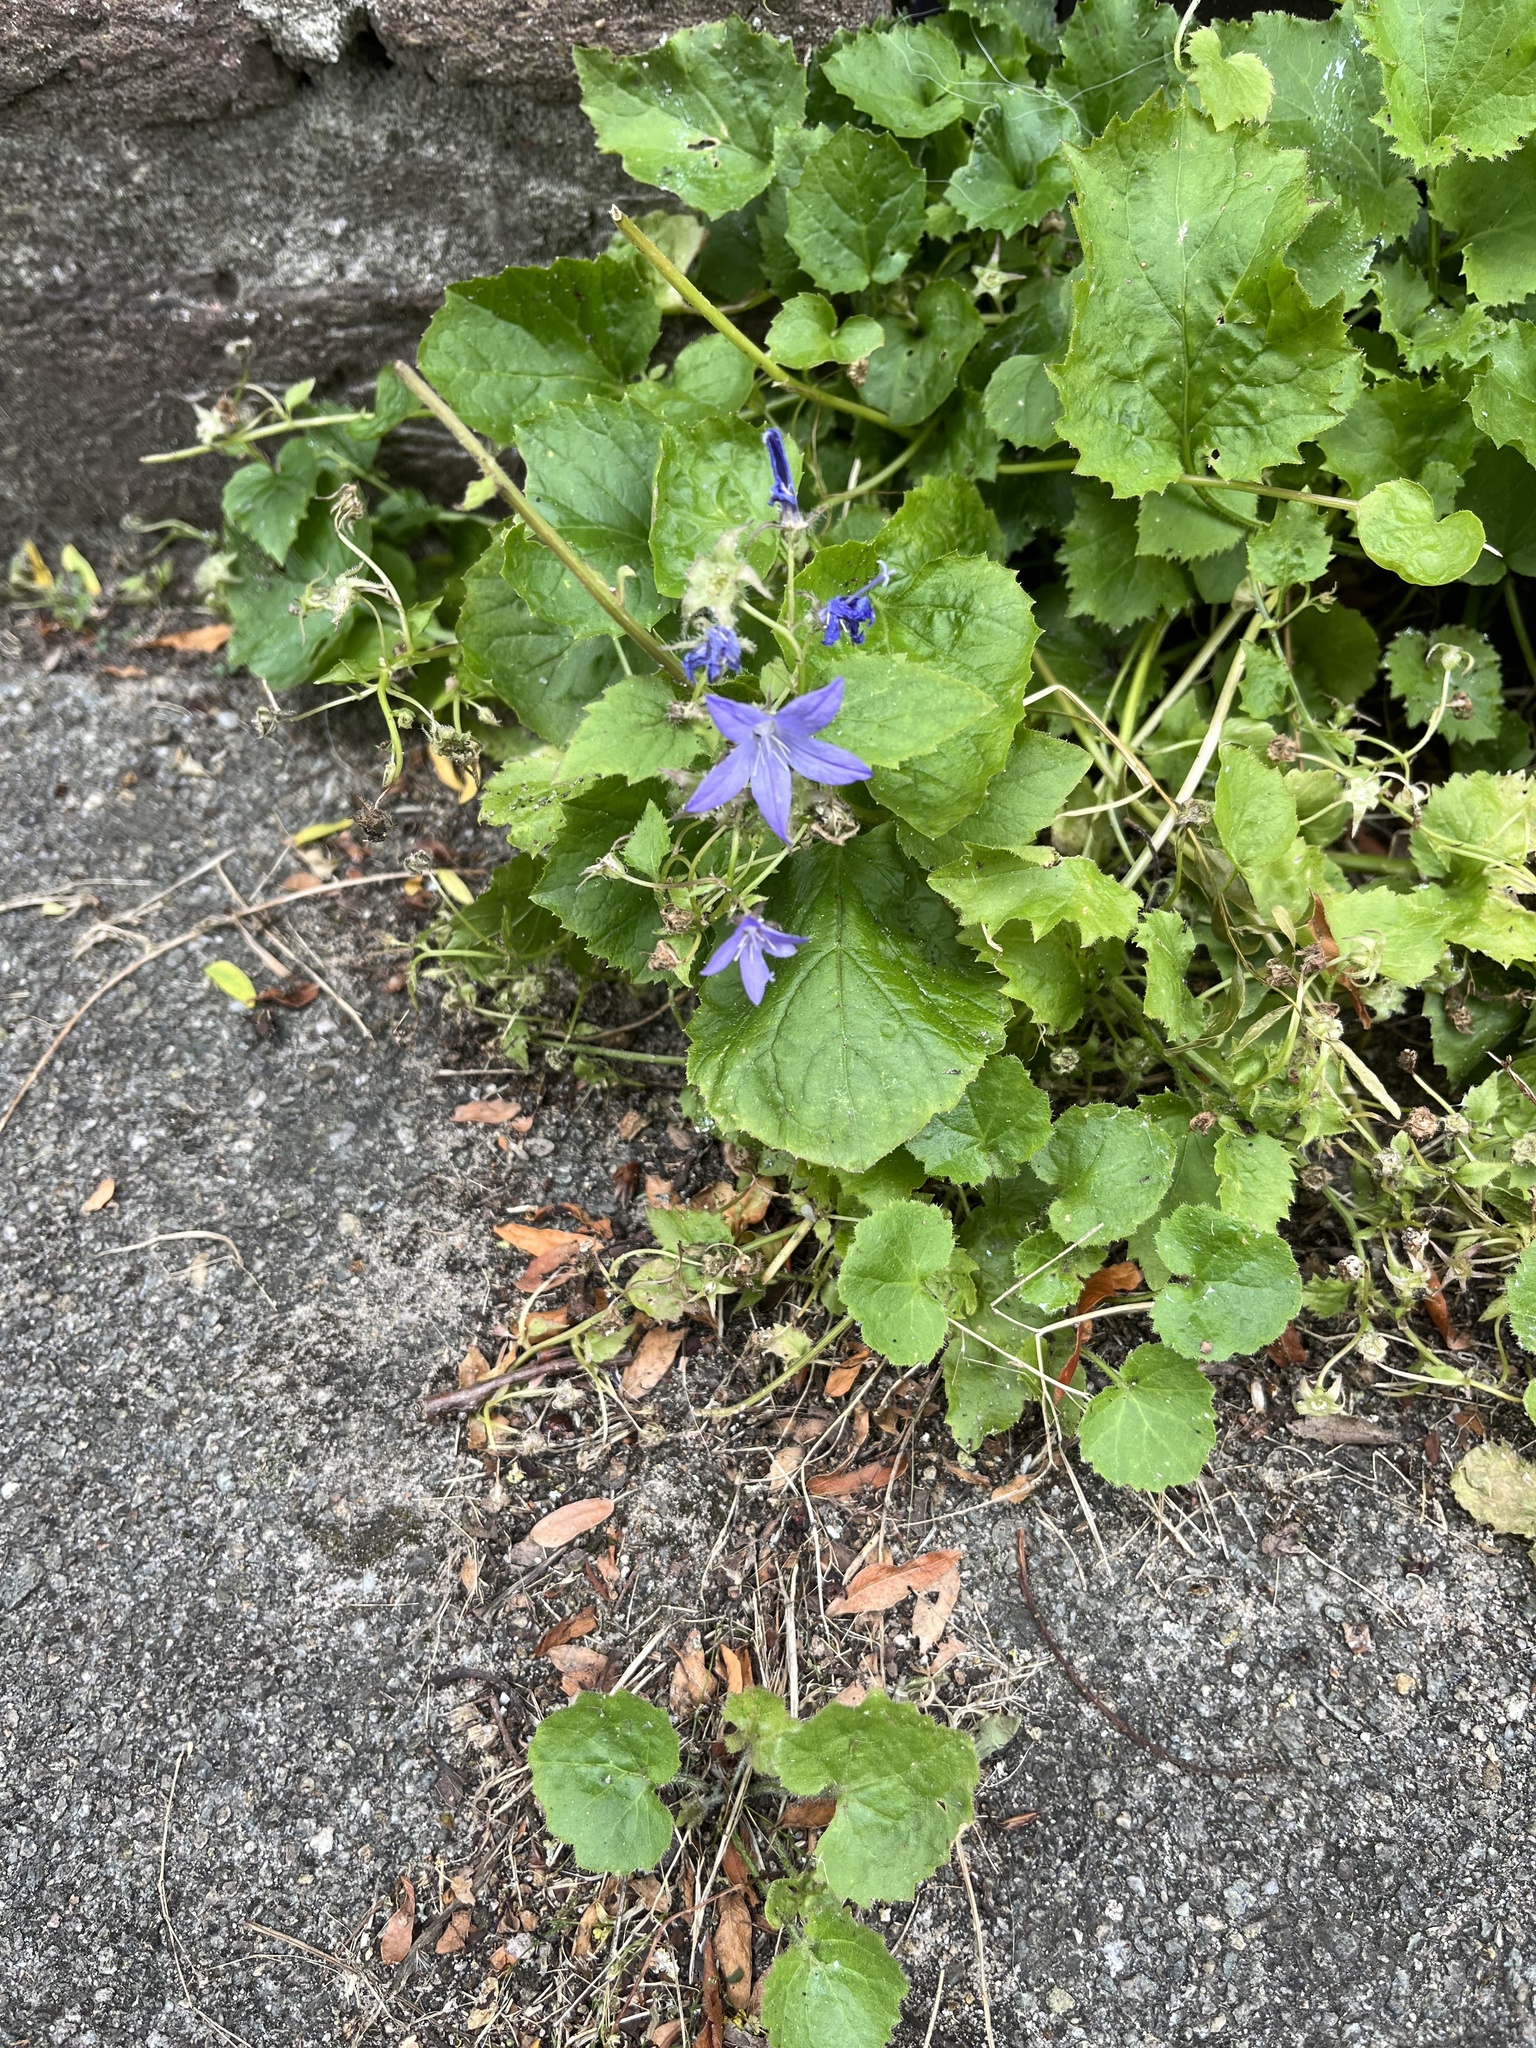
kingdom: Plantae
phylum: Tracheophyta
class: Magnoliopsida
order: Asterales
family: Campanulaceae
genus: Campanula
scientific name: Campanula poscharskyana
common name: Trailing bellflower
